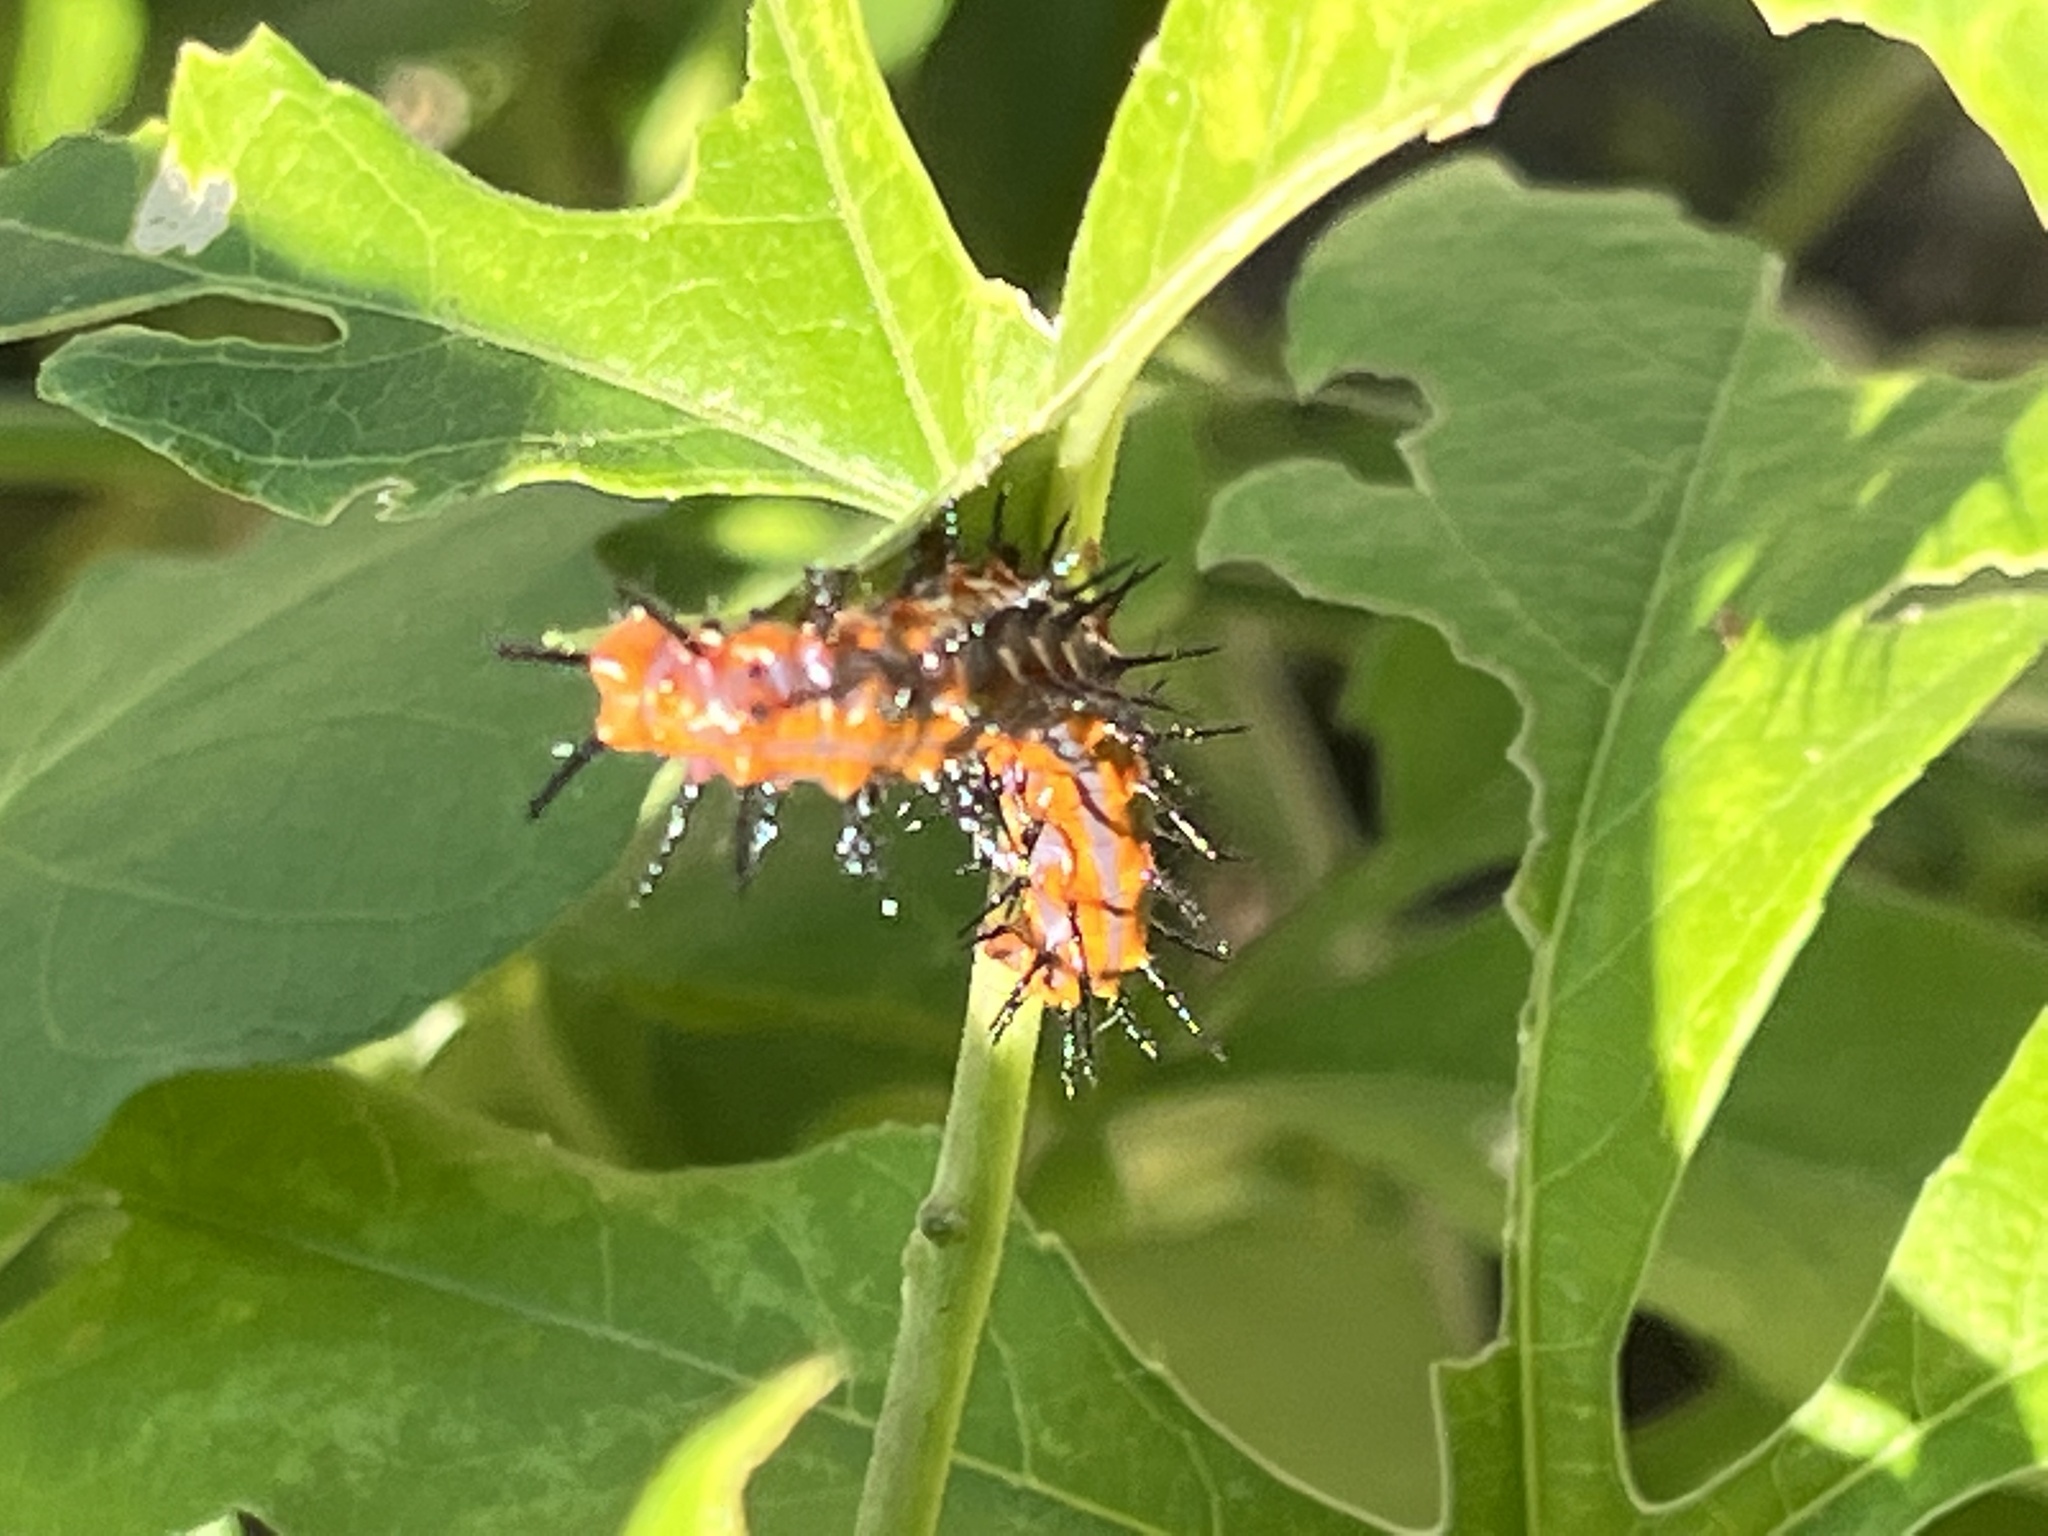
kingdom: Animalia
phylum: Arthropoda
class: Insecta
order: Lepidoptera
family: Nymphalidae
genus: Dione
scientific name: Dione vanillae
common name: Gulf fritillary
